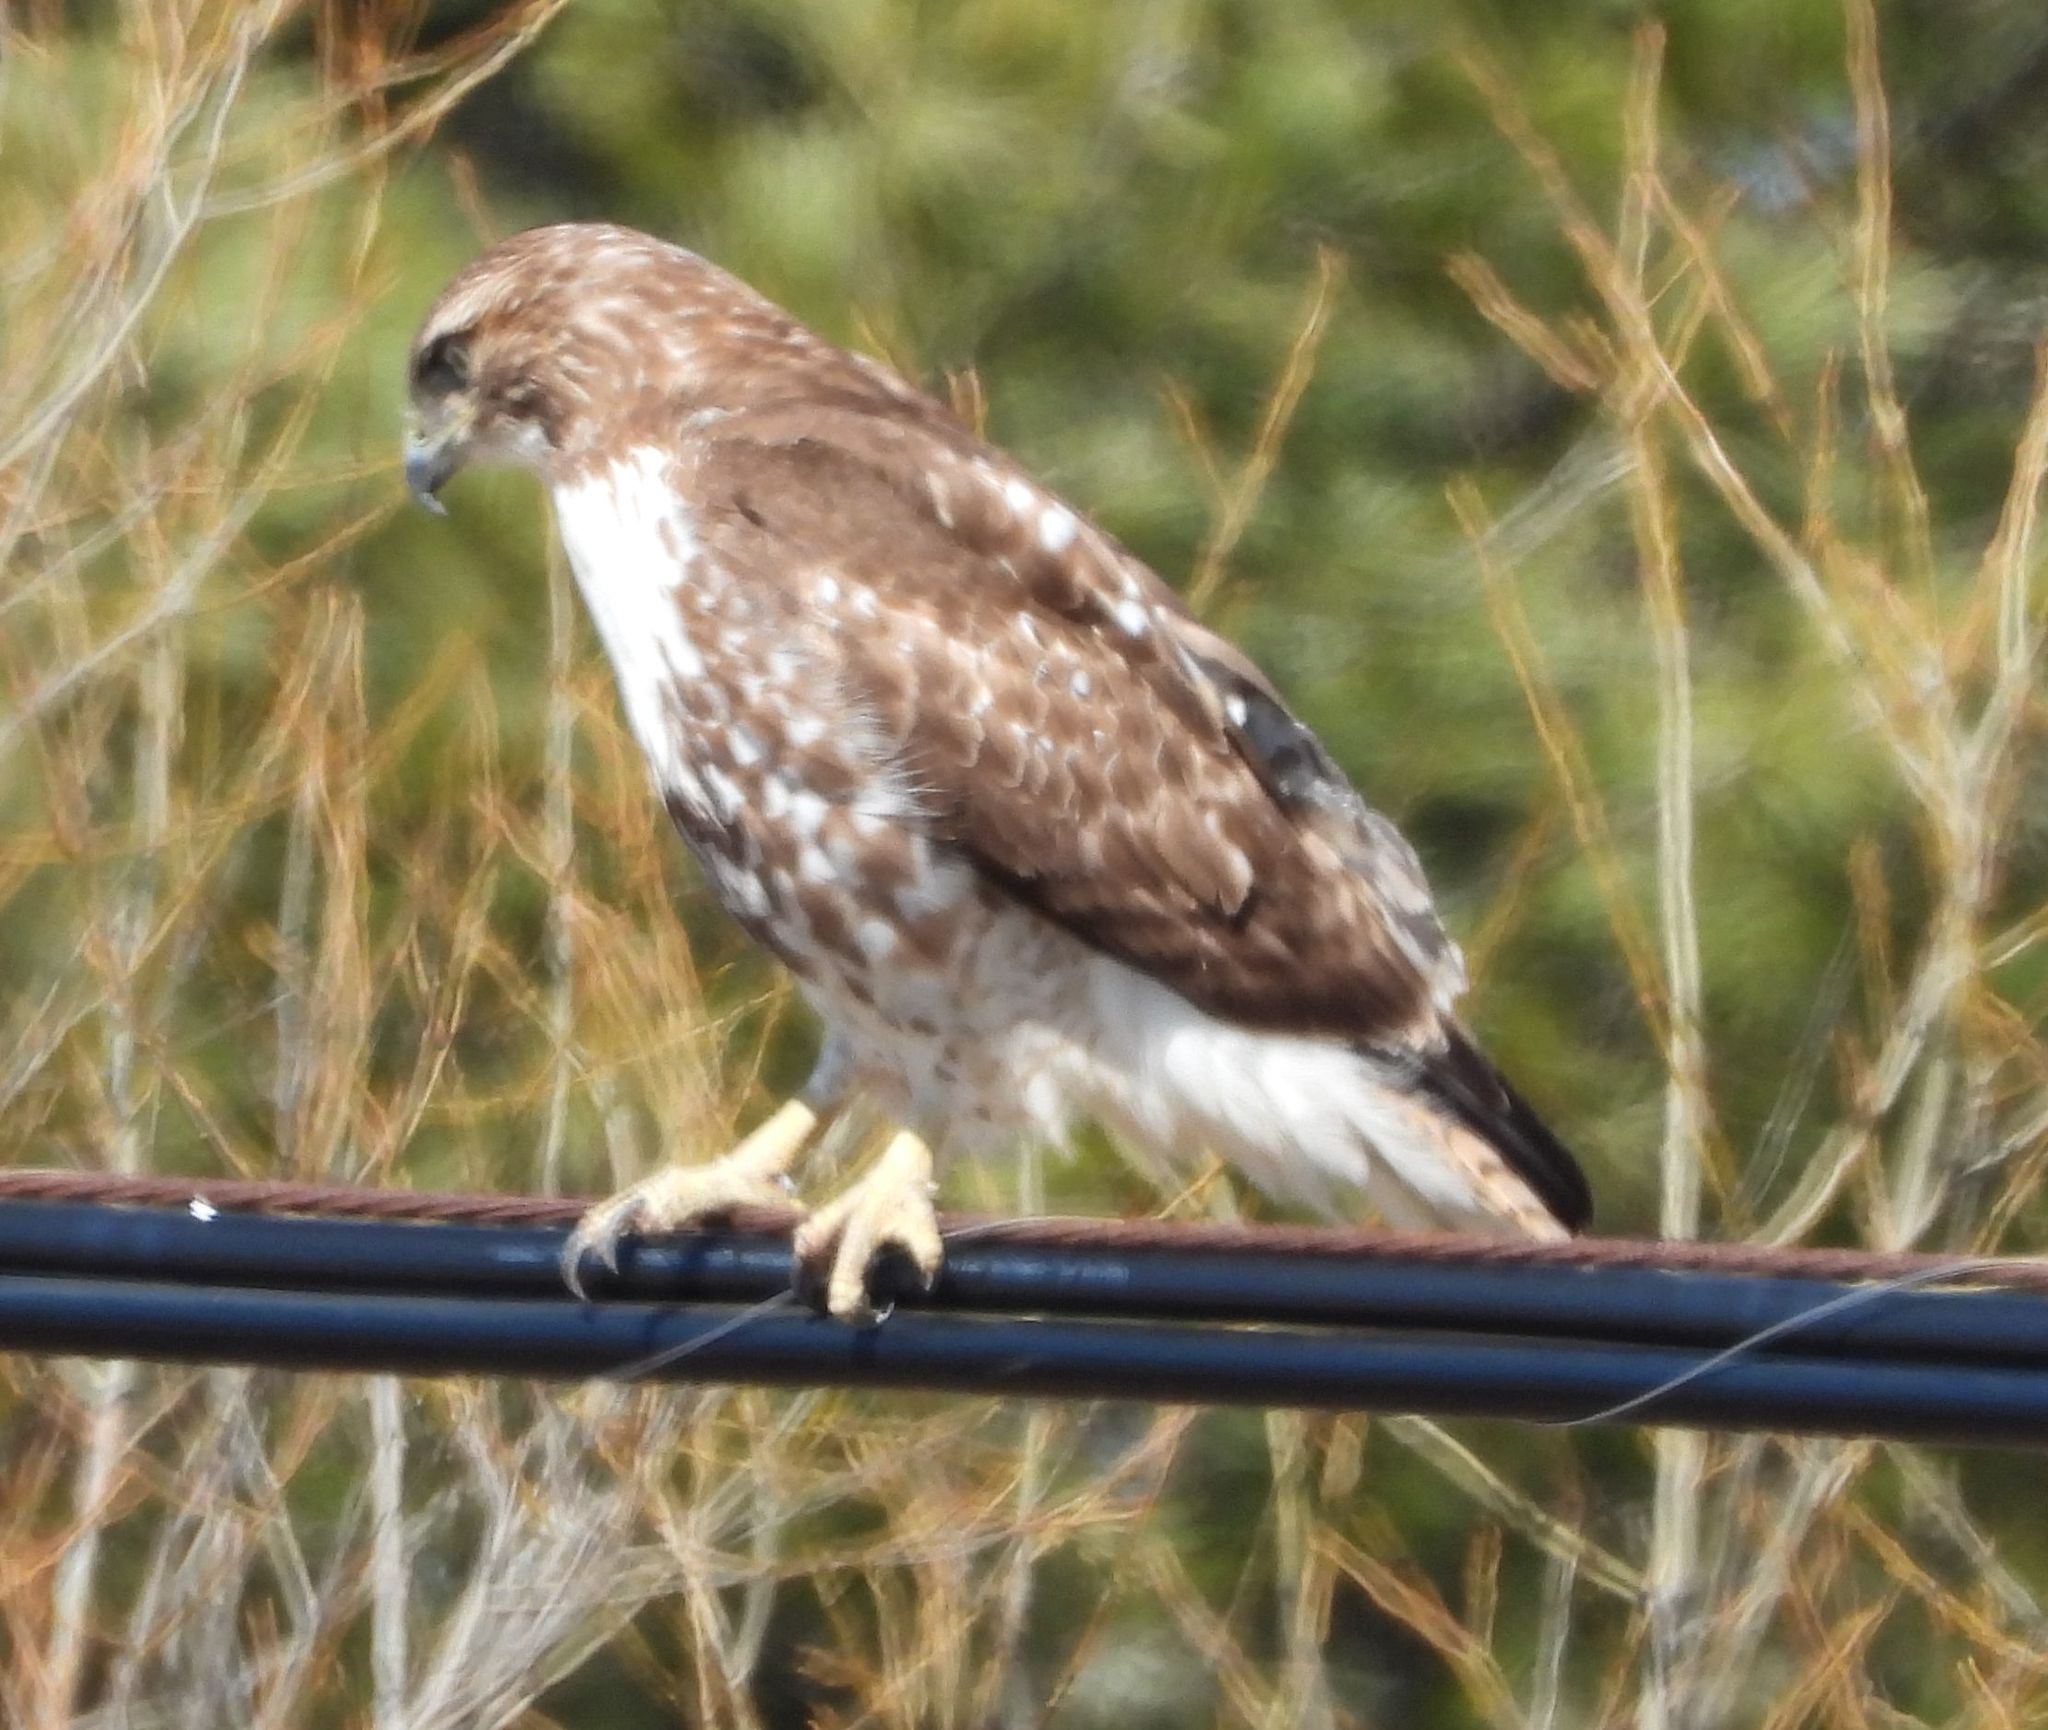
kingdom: Animalia
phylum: Chordata
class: Aves
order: Accipitriformes
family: Accipitridae
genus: Buteo
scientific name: Buteo jamaicensis
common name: Red-tailed hawk
